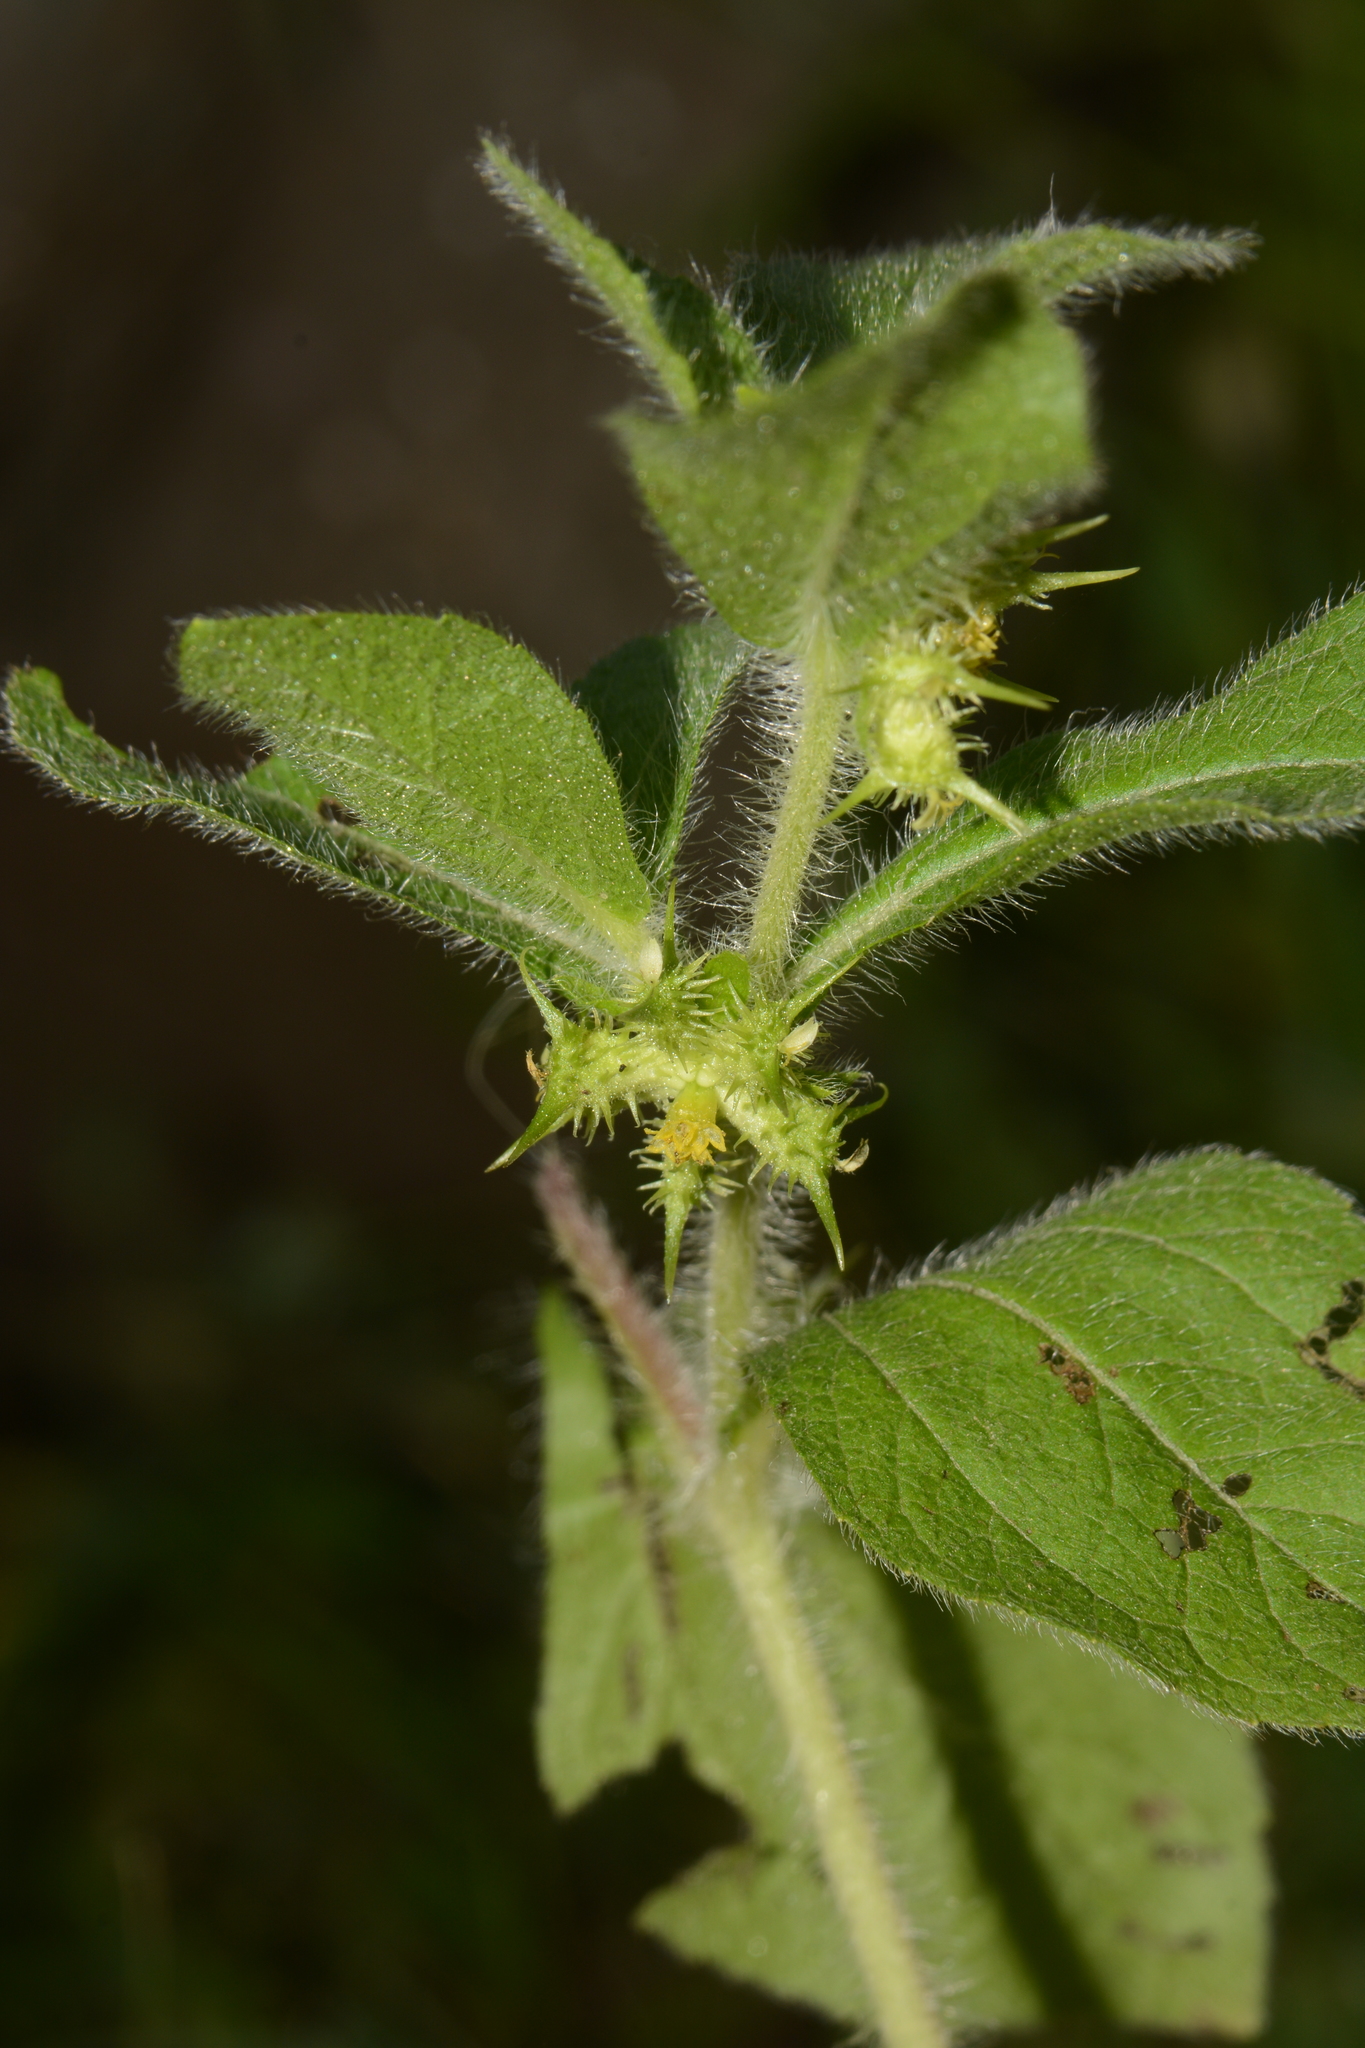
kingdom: Plantae
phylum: Tracheophyta
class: Magnoliopsida
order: Asterales
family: Asteraceae
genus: Acanthospermum
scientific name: Acanthospermum hispidum
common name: Hispid starbur
